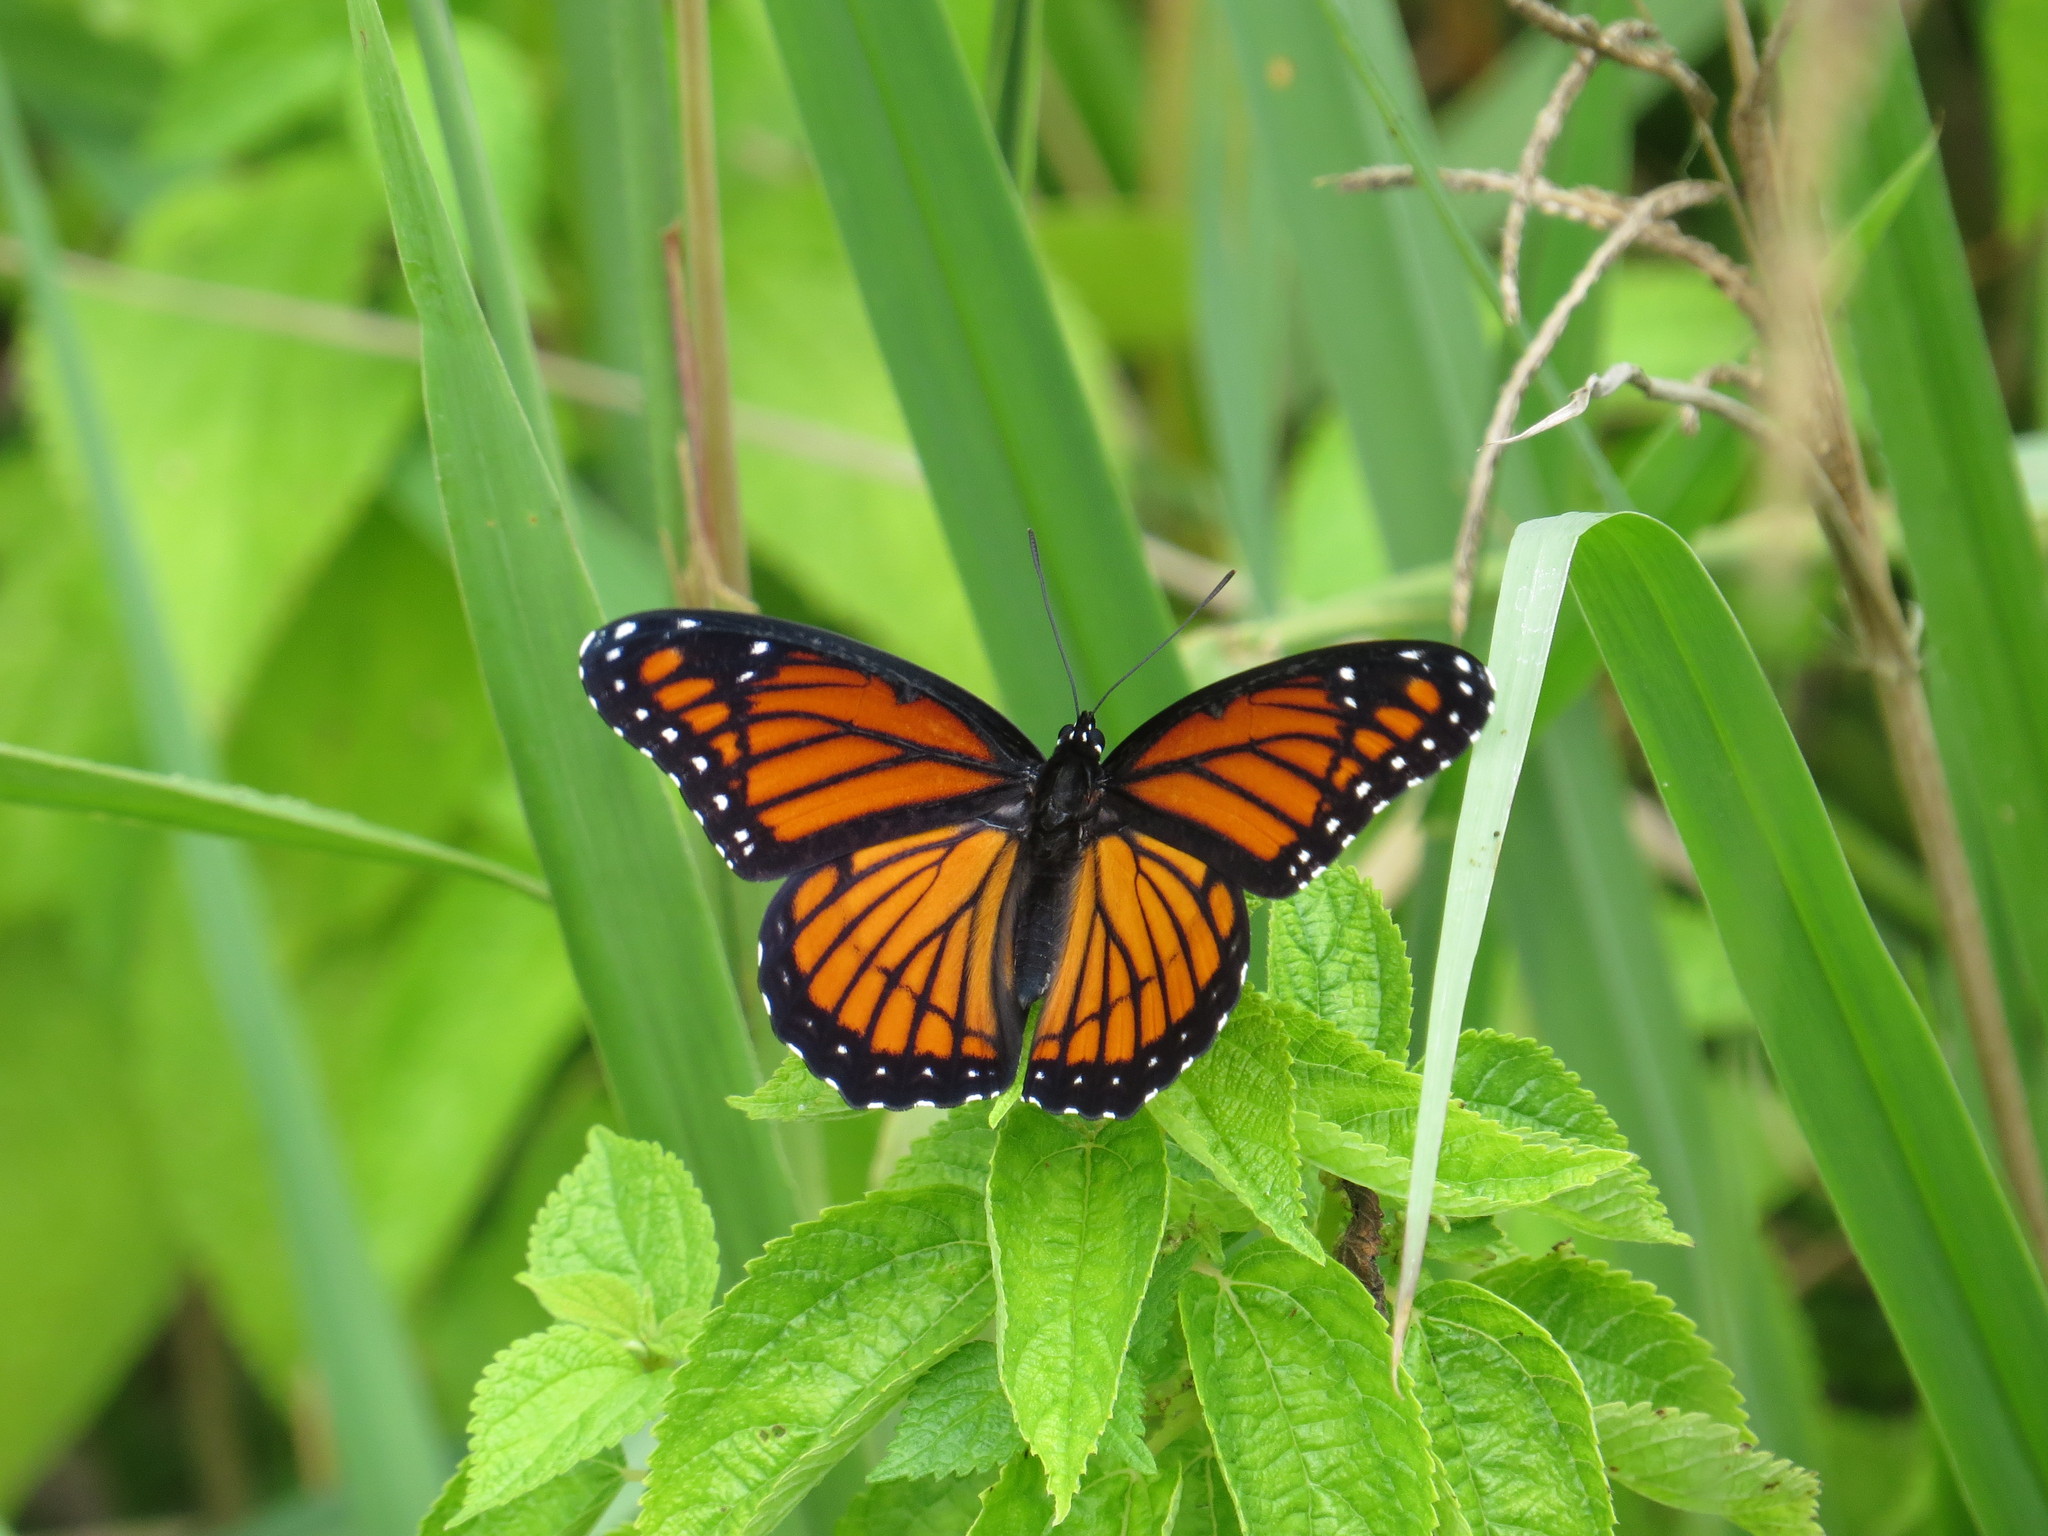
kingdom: Animalia
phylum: Arthropoda
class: Insecta
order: Lepidoptera
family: Nymphalidae
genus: Limenitis
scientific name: Limenitis archippus
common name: Viceroy
